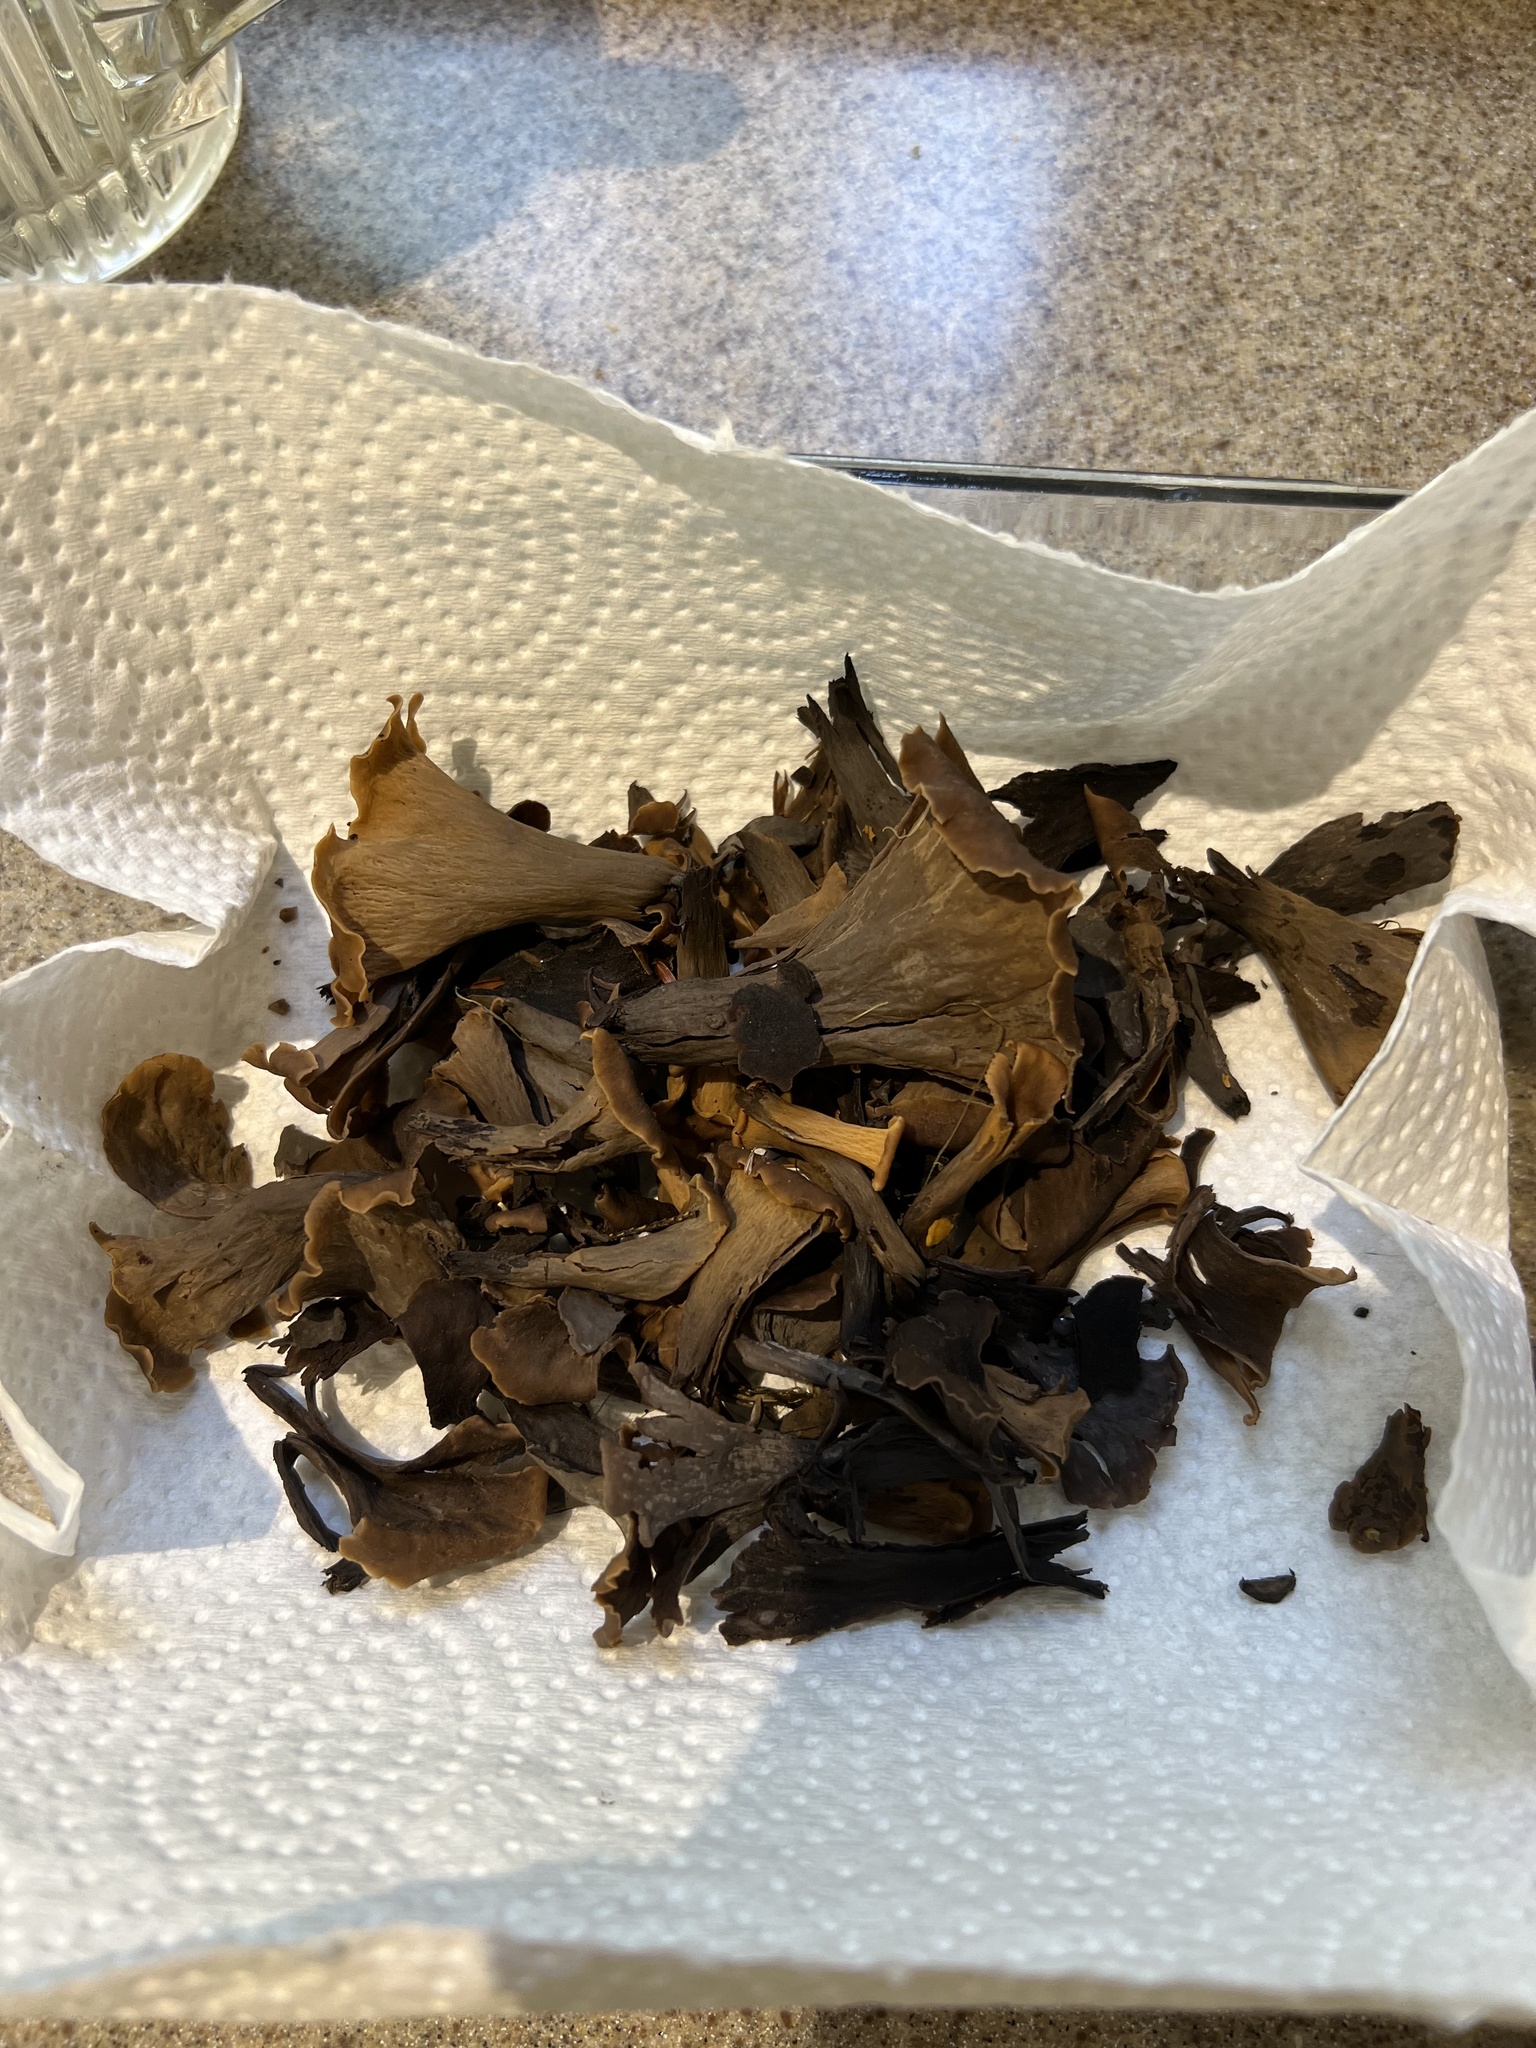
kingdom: Fungi
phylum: Basidiomycota
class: Agaricomycetes
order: Cantharellales
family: Hydnaceae
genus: Craterellus
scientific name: Craterellus cornucopioides
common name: Horn of plenty
